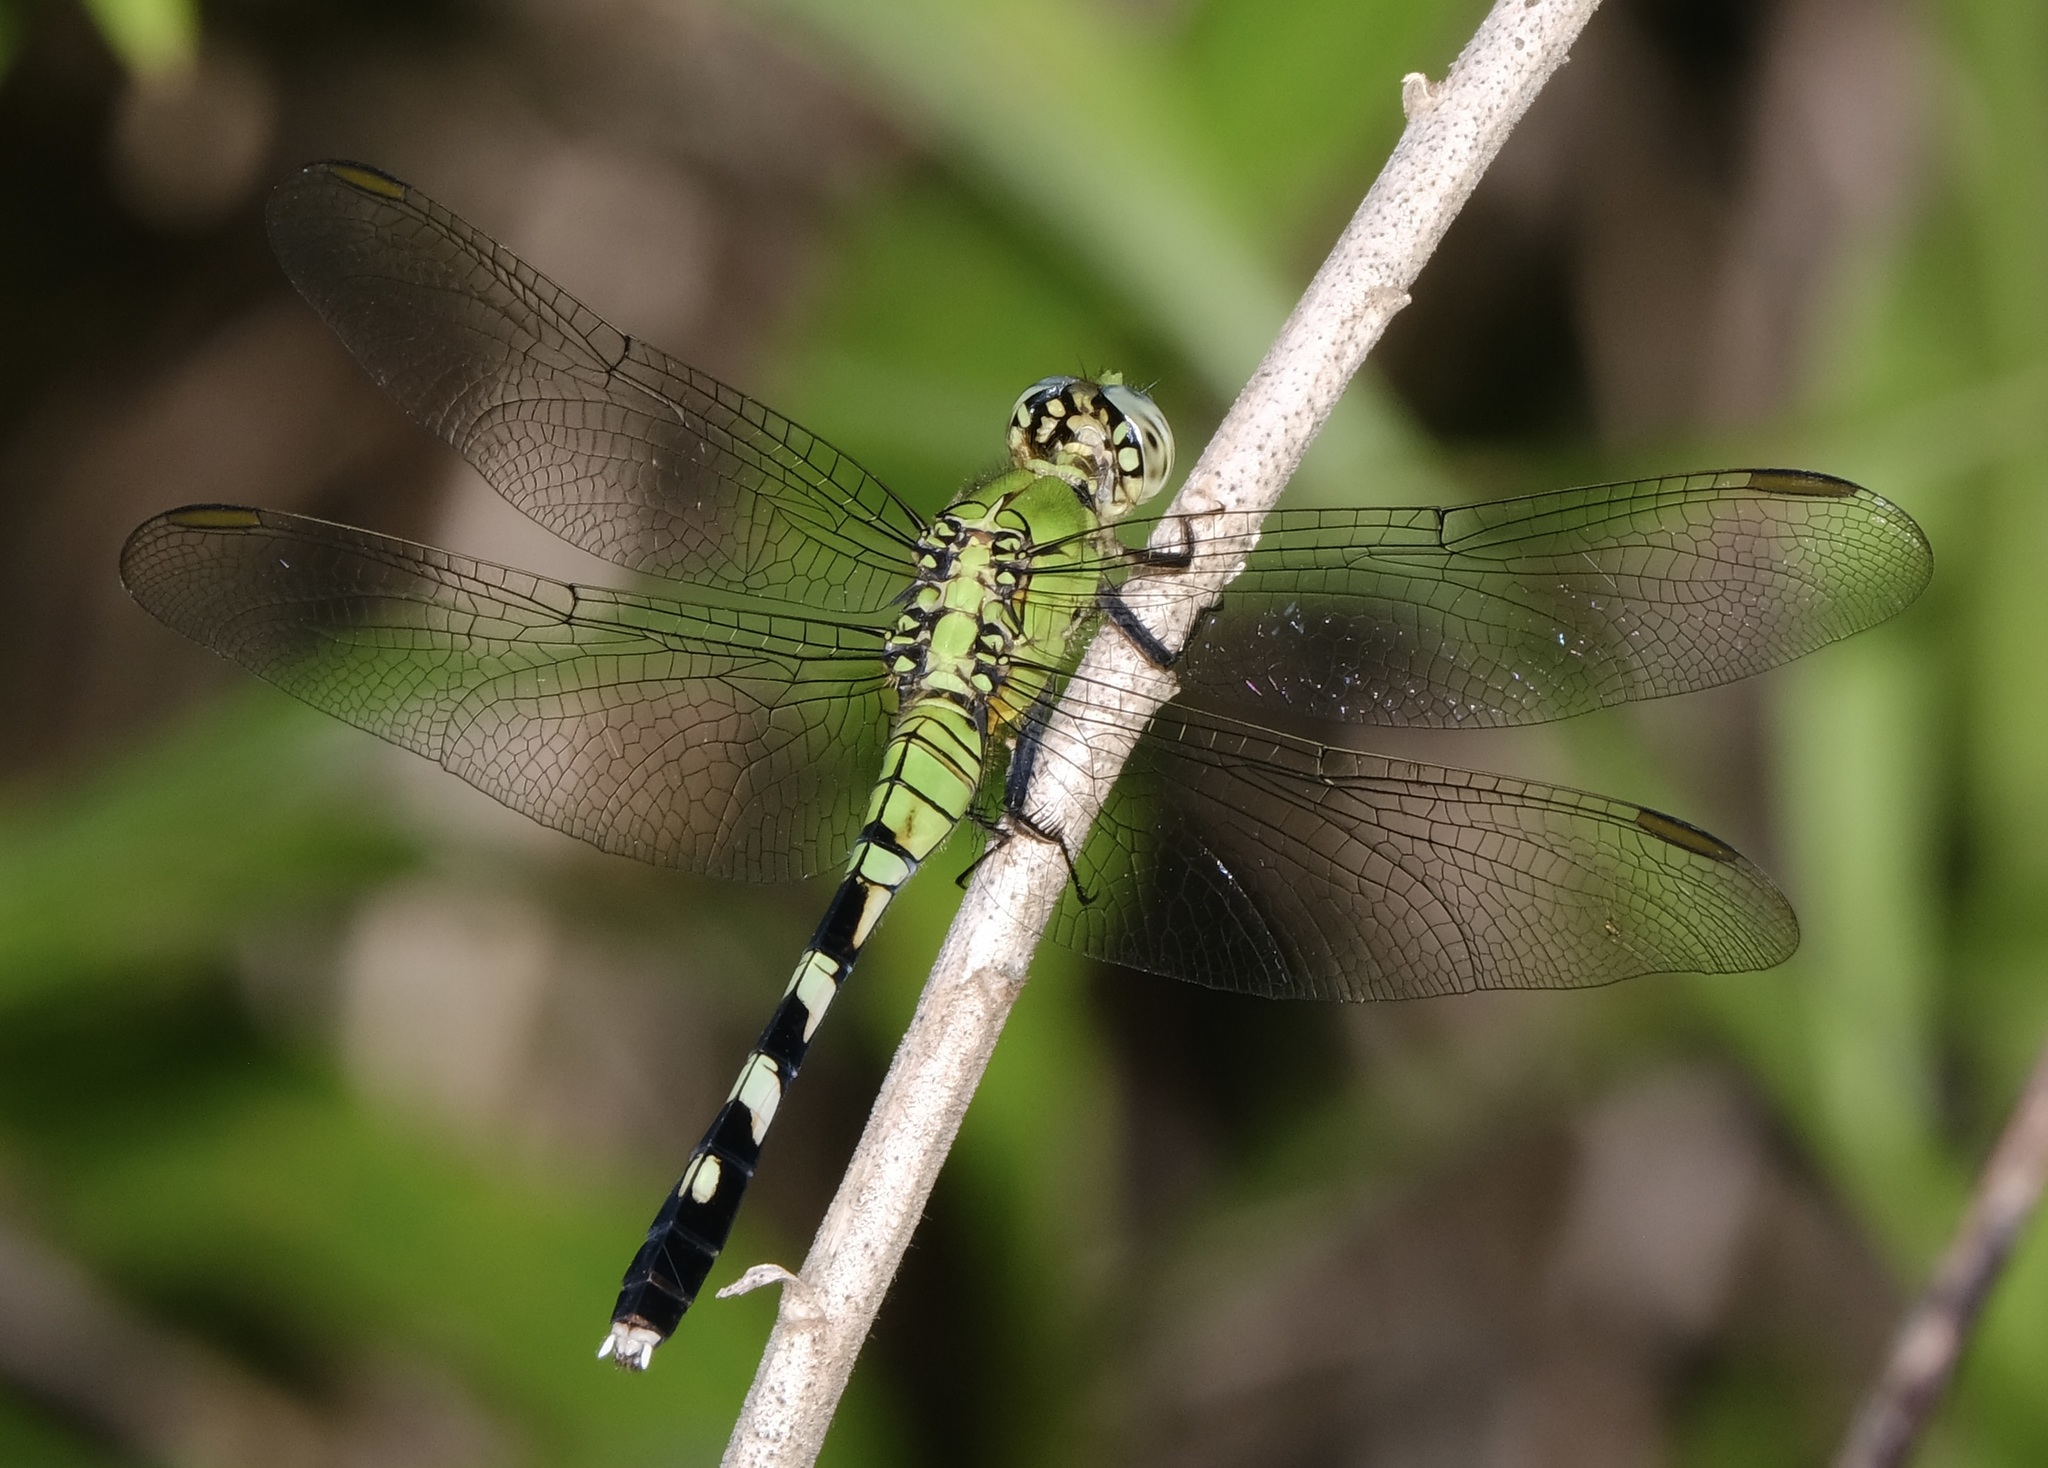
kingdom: Animalia
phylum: Arthropoda
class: Insecta
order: Odonata
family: Libellulidae
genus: Erythemis
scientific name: Erythemis simplicicollis
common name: Eastern pondhawk
